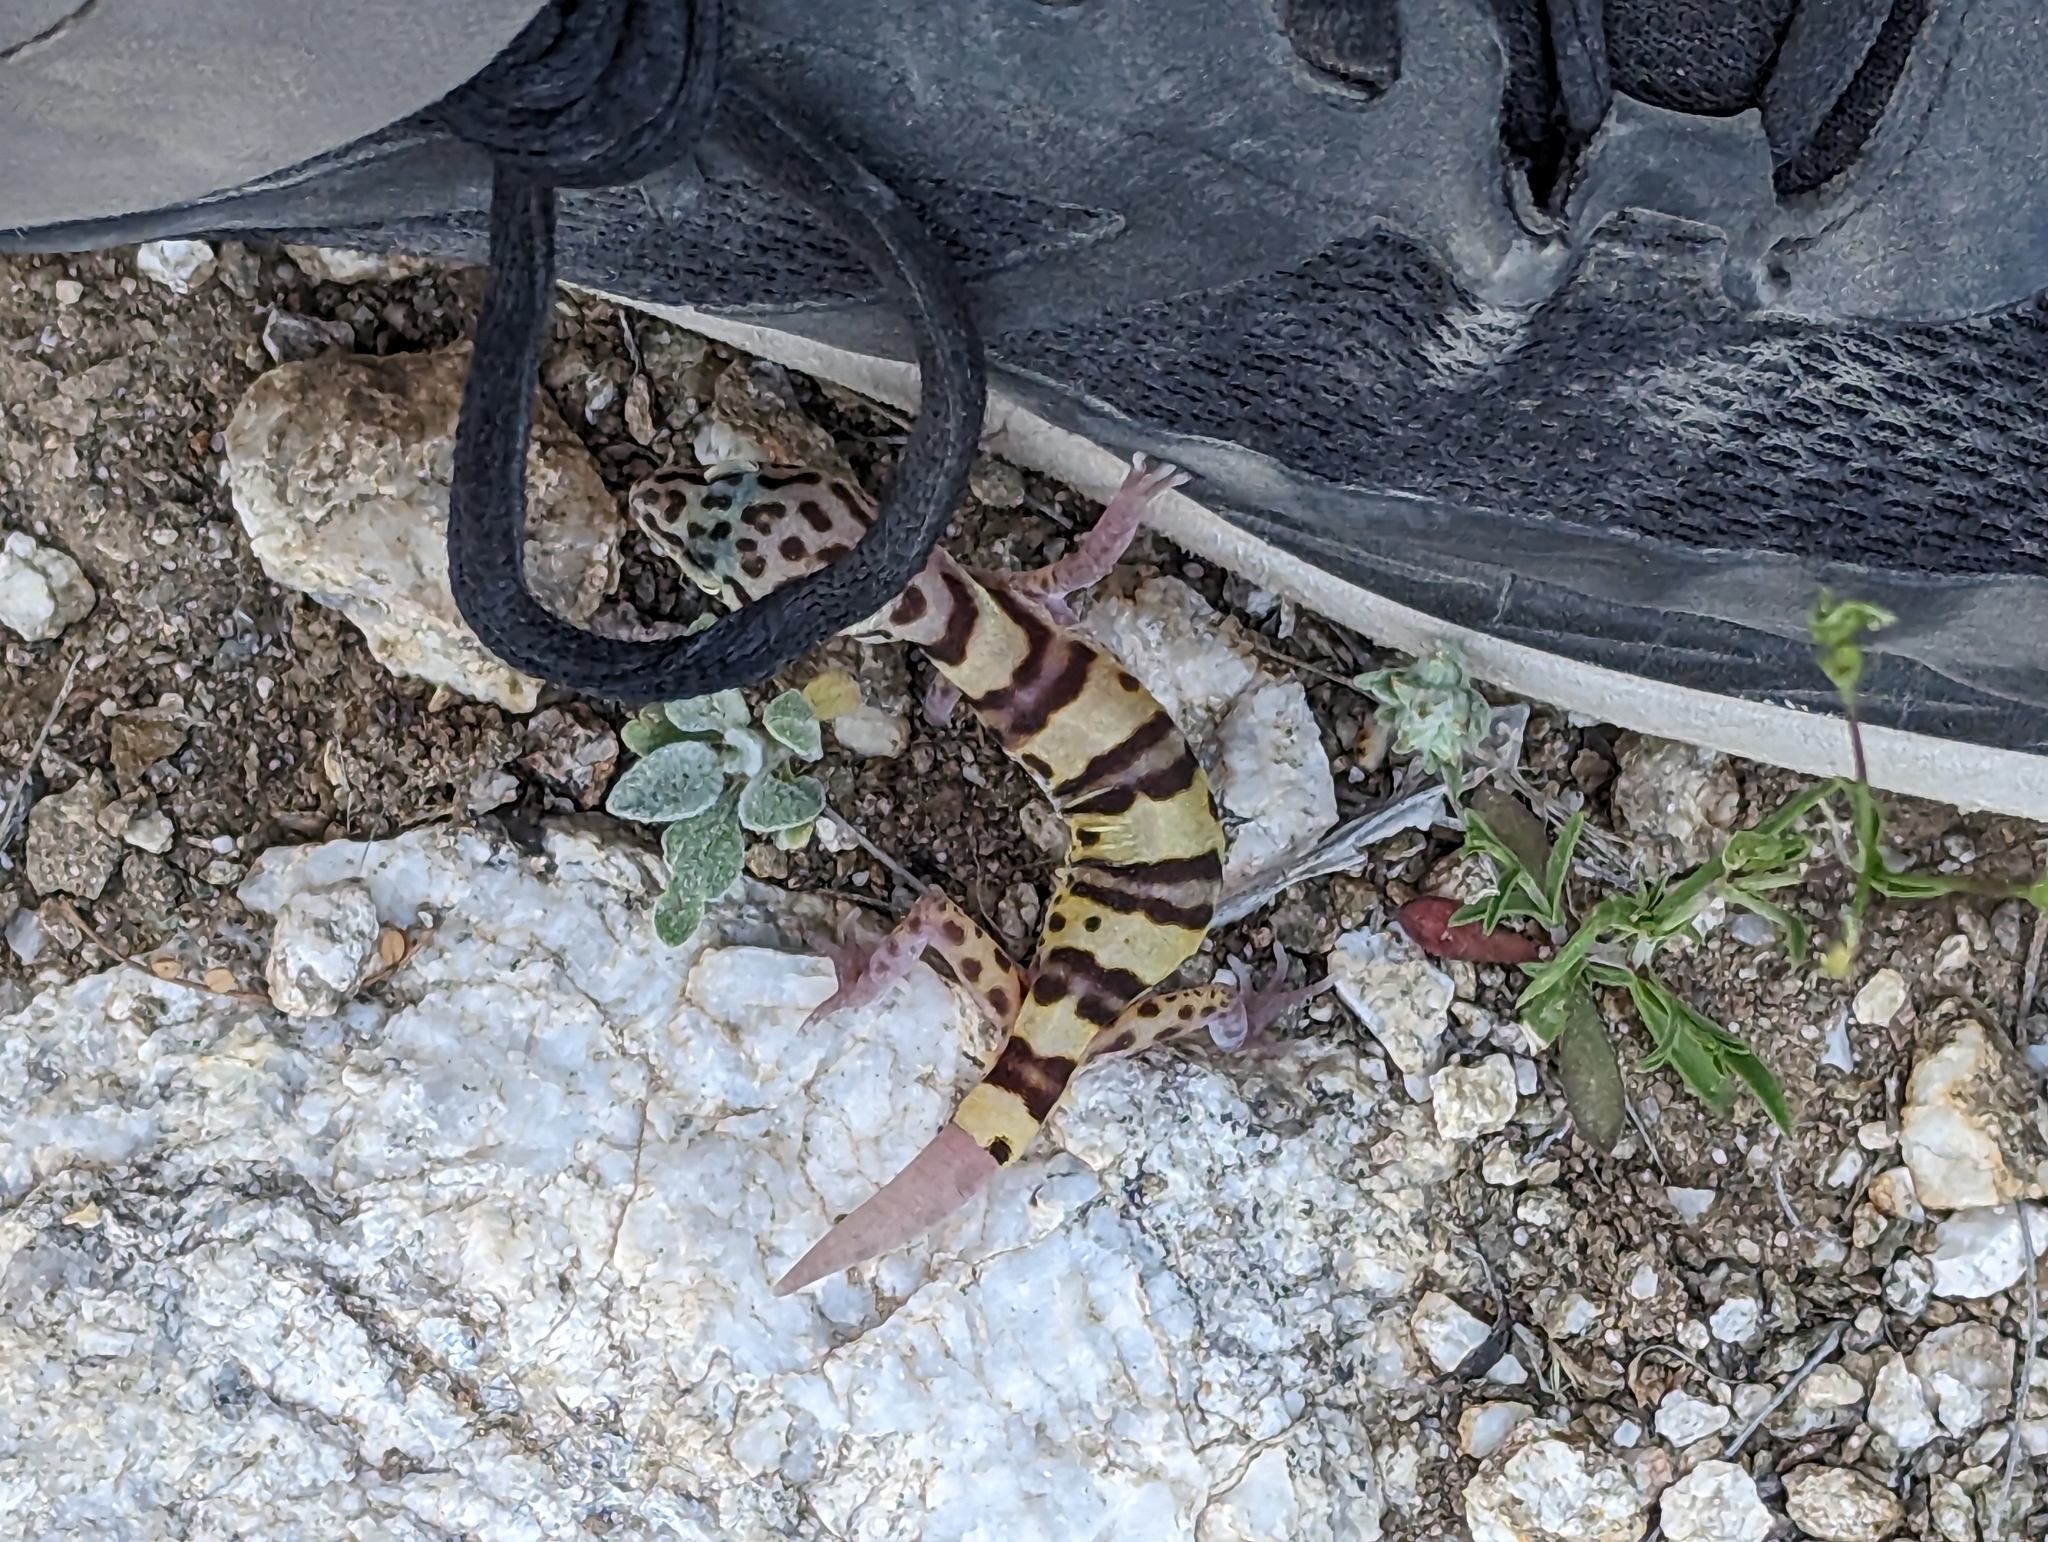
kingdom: Animalia
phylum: Chordata
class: Squamata
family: Eublepharidae
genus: Coleonyx
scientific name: Coleonyx variegatus
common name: Western banded gecko
